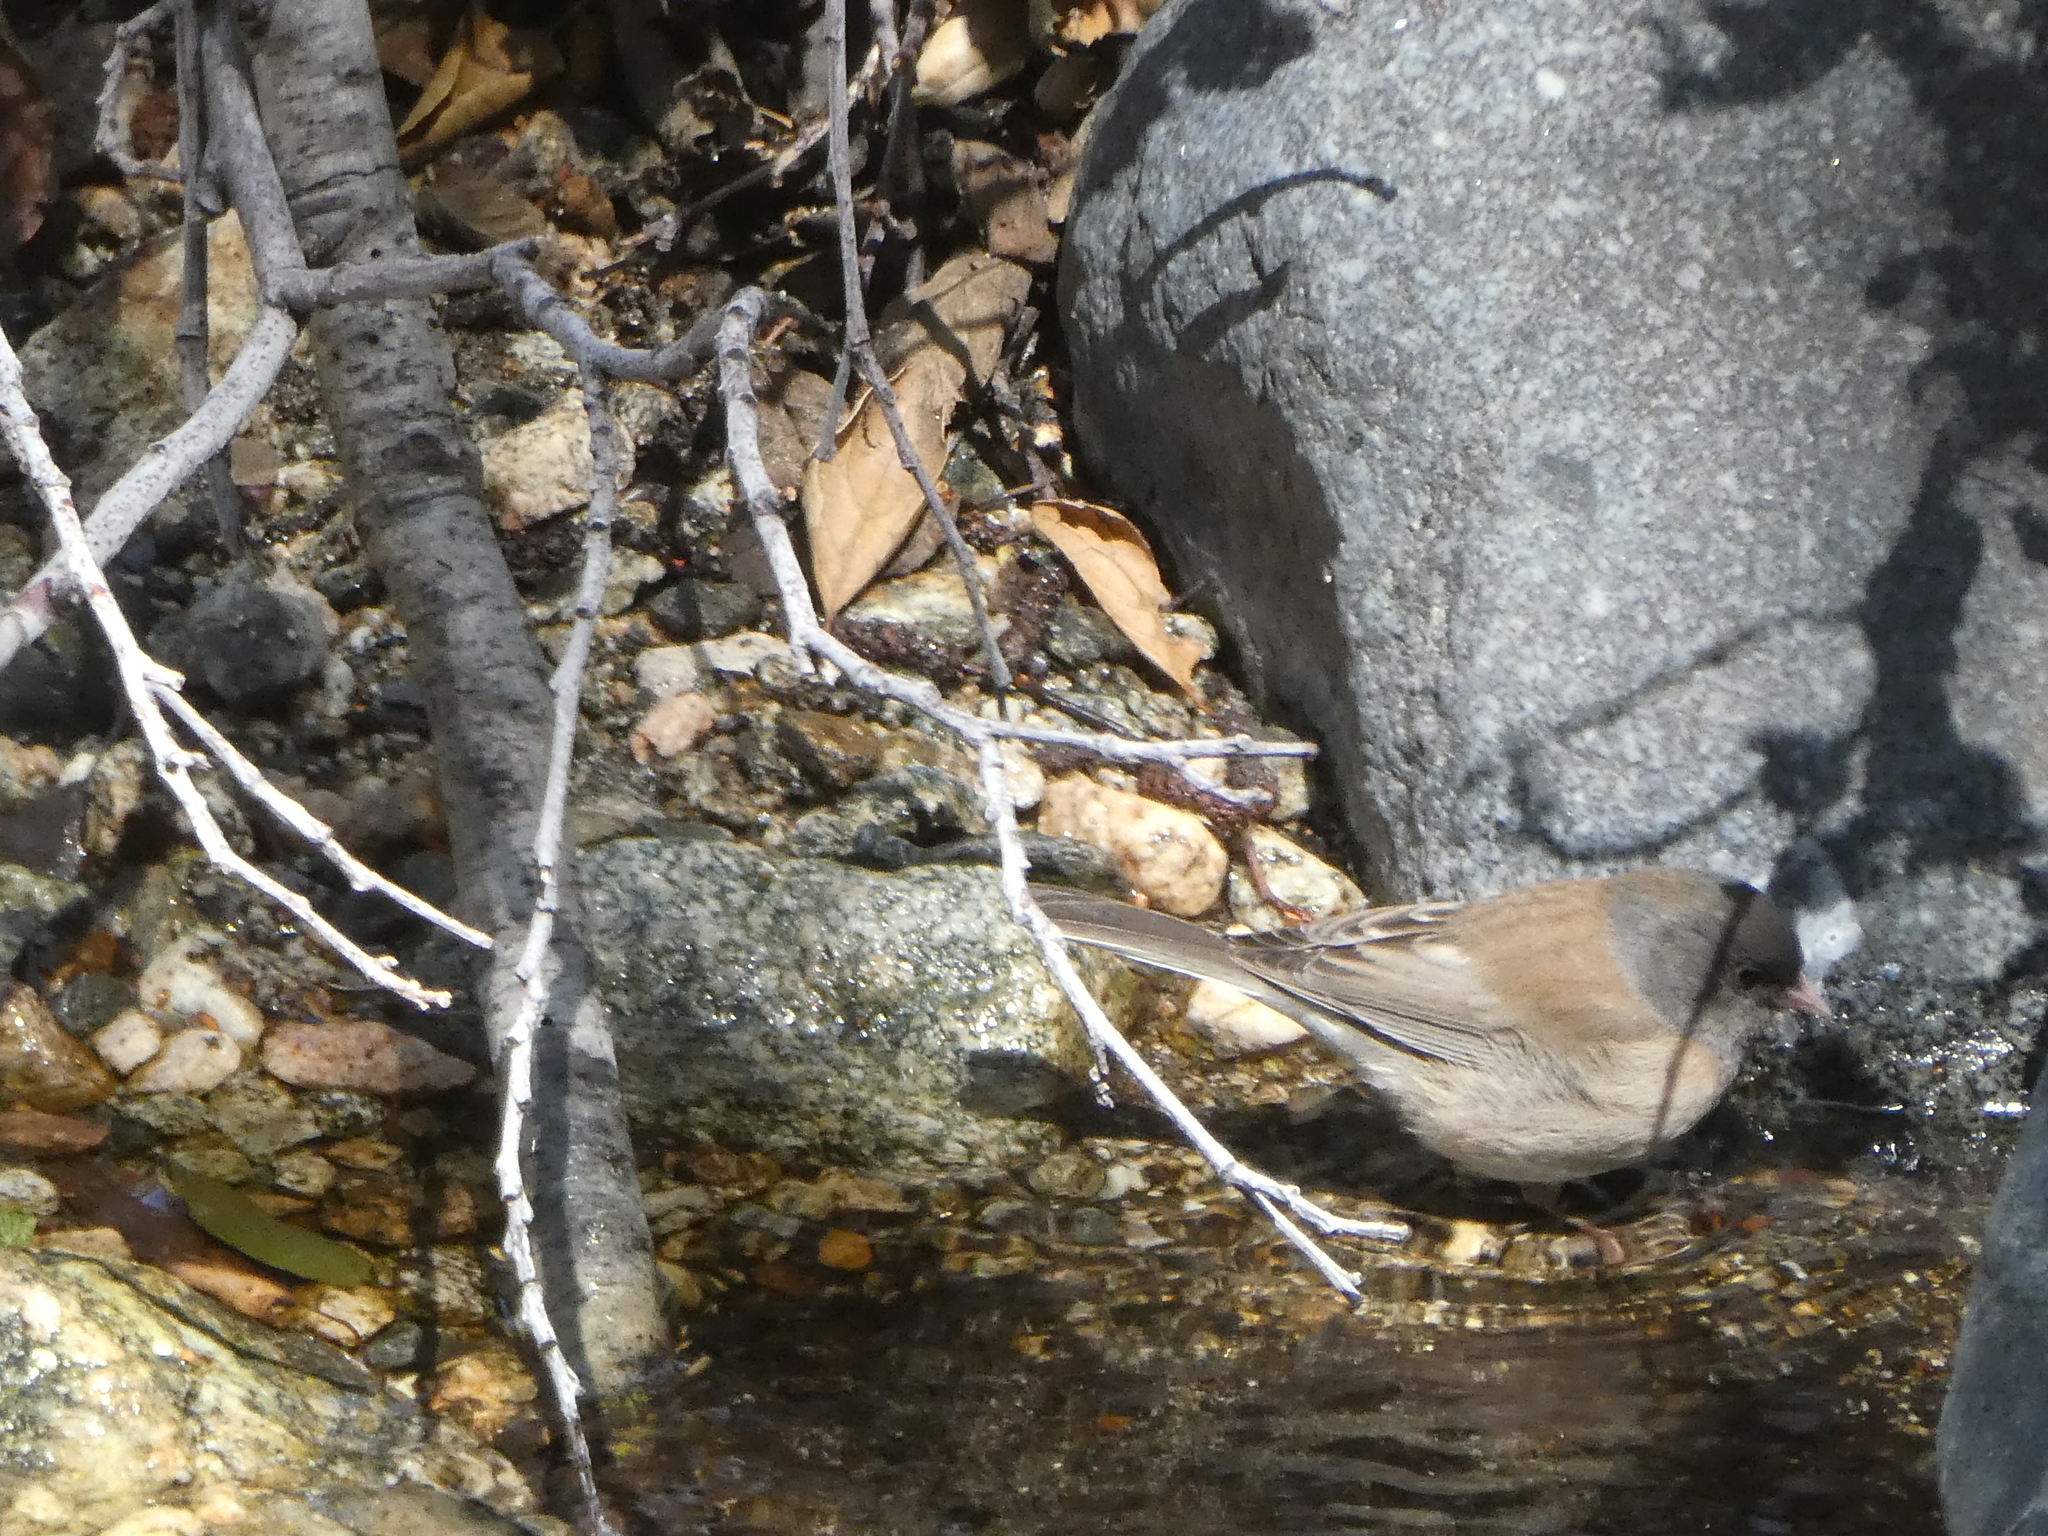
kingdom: Animalia
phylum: Chordata
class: Aves
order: Passeriformes
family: Passerellidae
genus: Junco
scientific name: Junco hyemalis
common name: Dark-eyed junco
